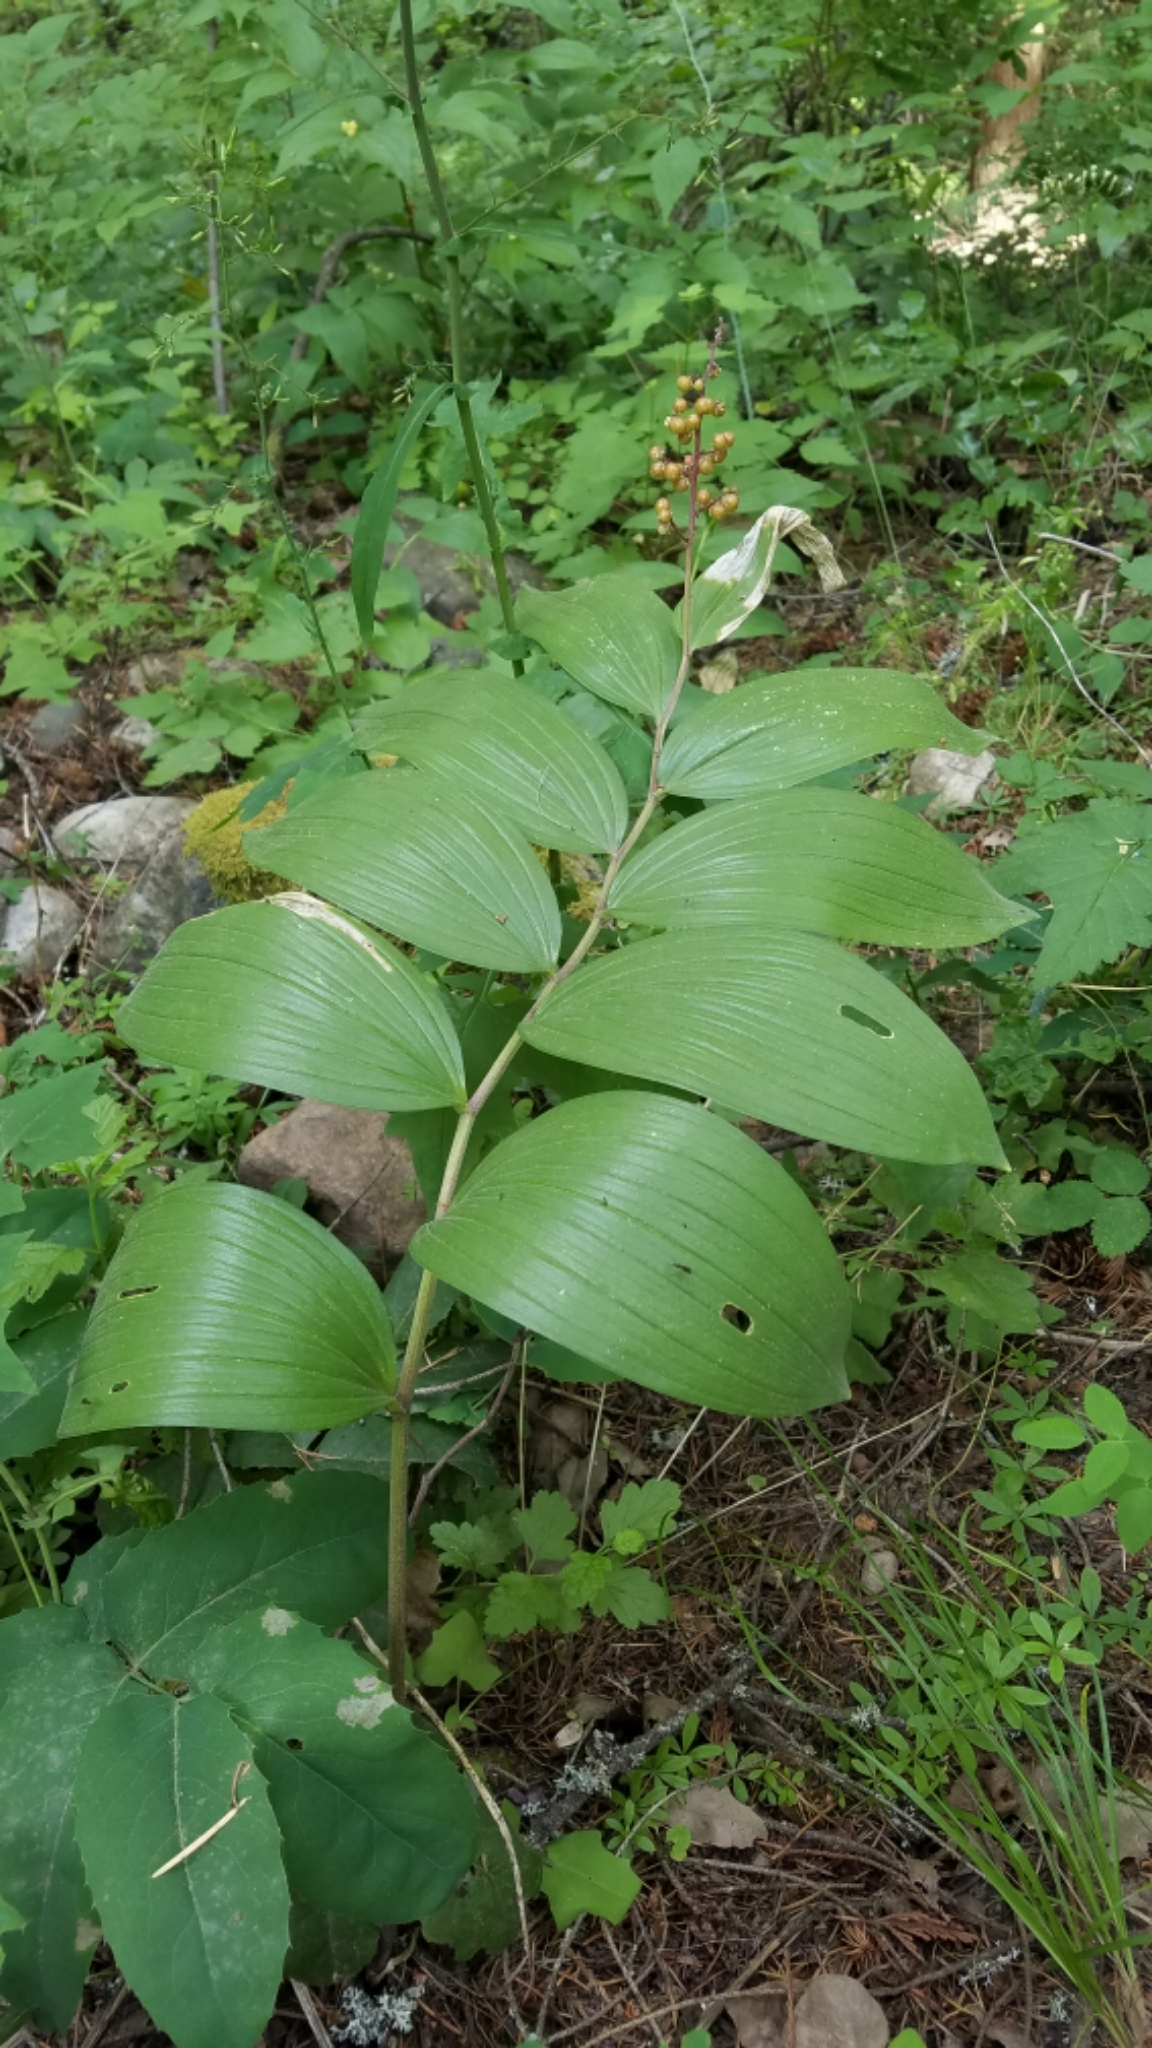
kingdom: Plantae
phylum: Tracheophyta
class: Liliopsida
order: Asparagales
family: Asparagaceae
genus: Maianthemum
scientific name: Maianthemum racemosum
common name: False spikenard
